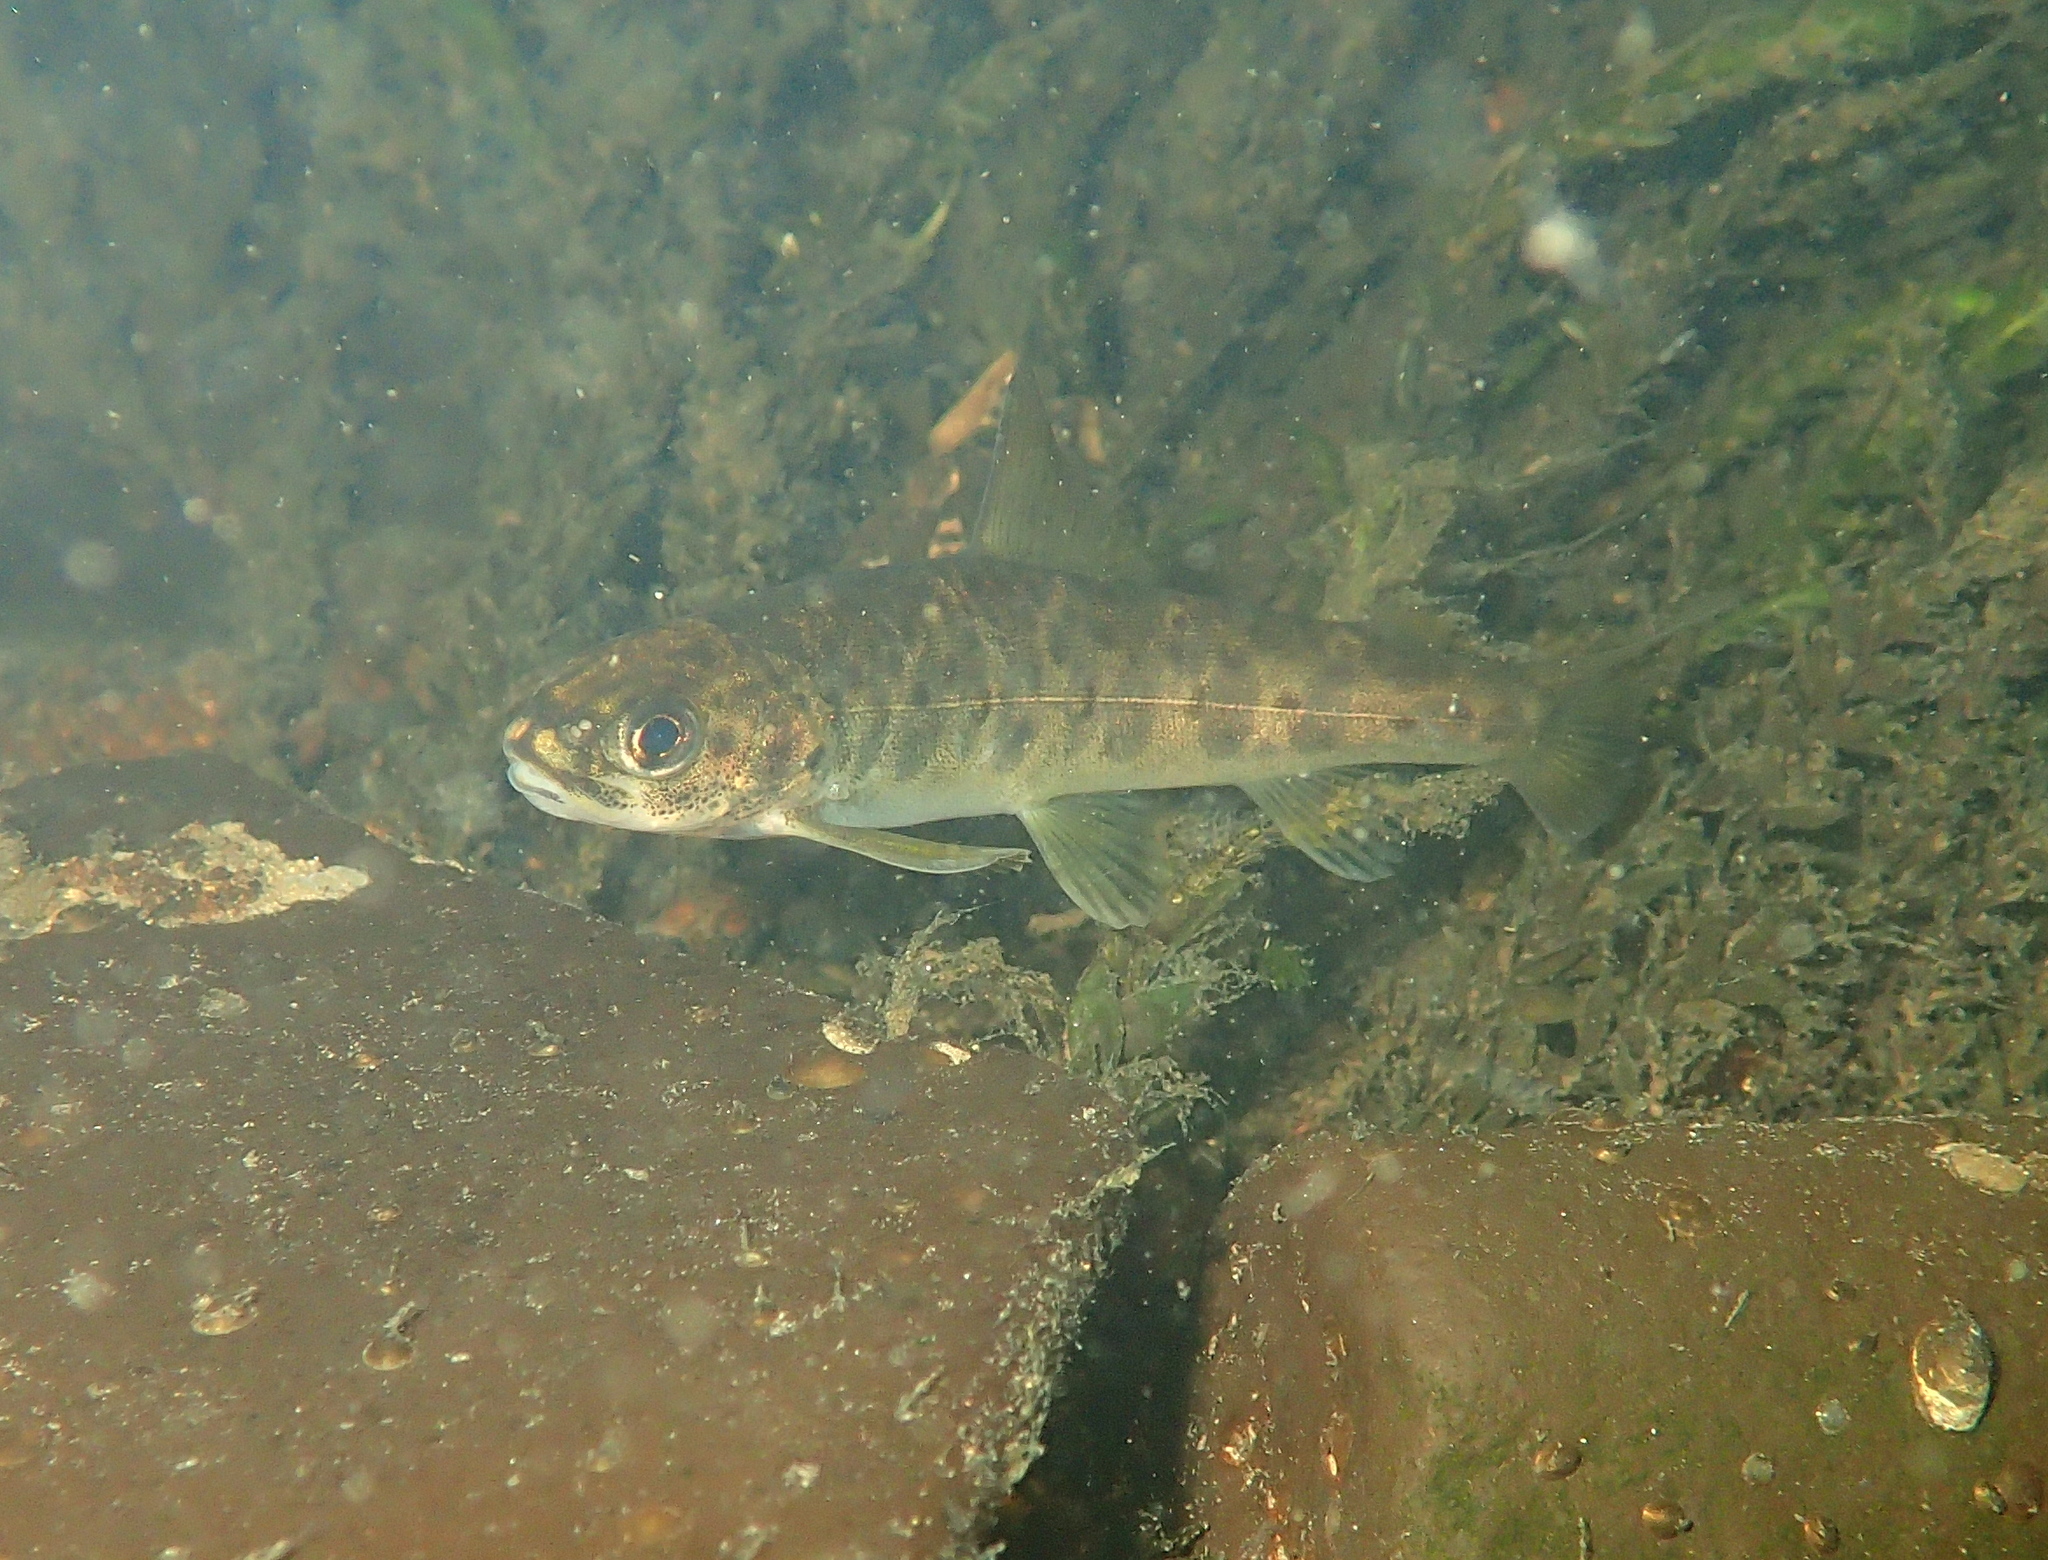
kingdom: Animalia
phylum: Chordata
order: Salmoniformes
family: Salmonidae
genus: Salmo
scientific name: Salmo salar
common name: Atlantic salmon
